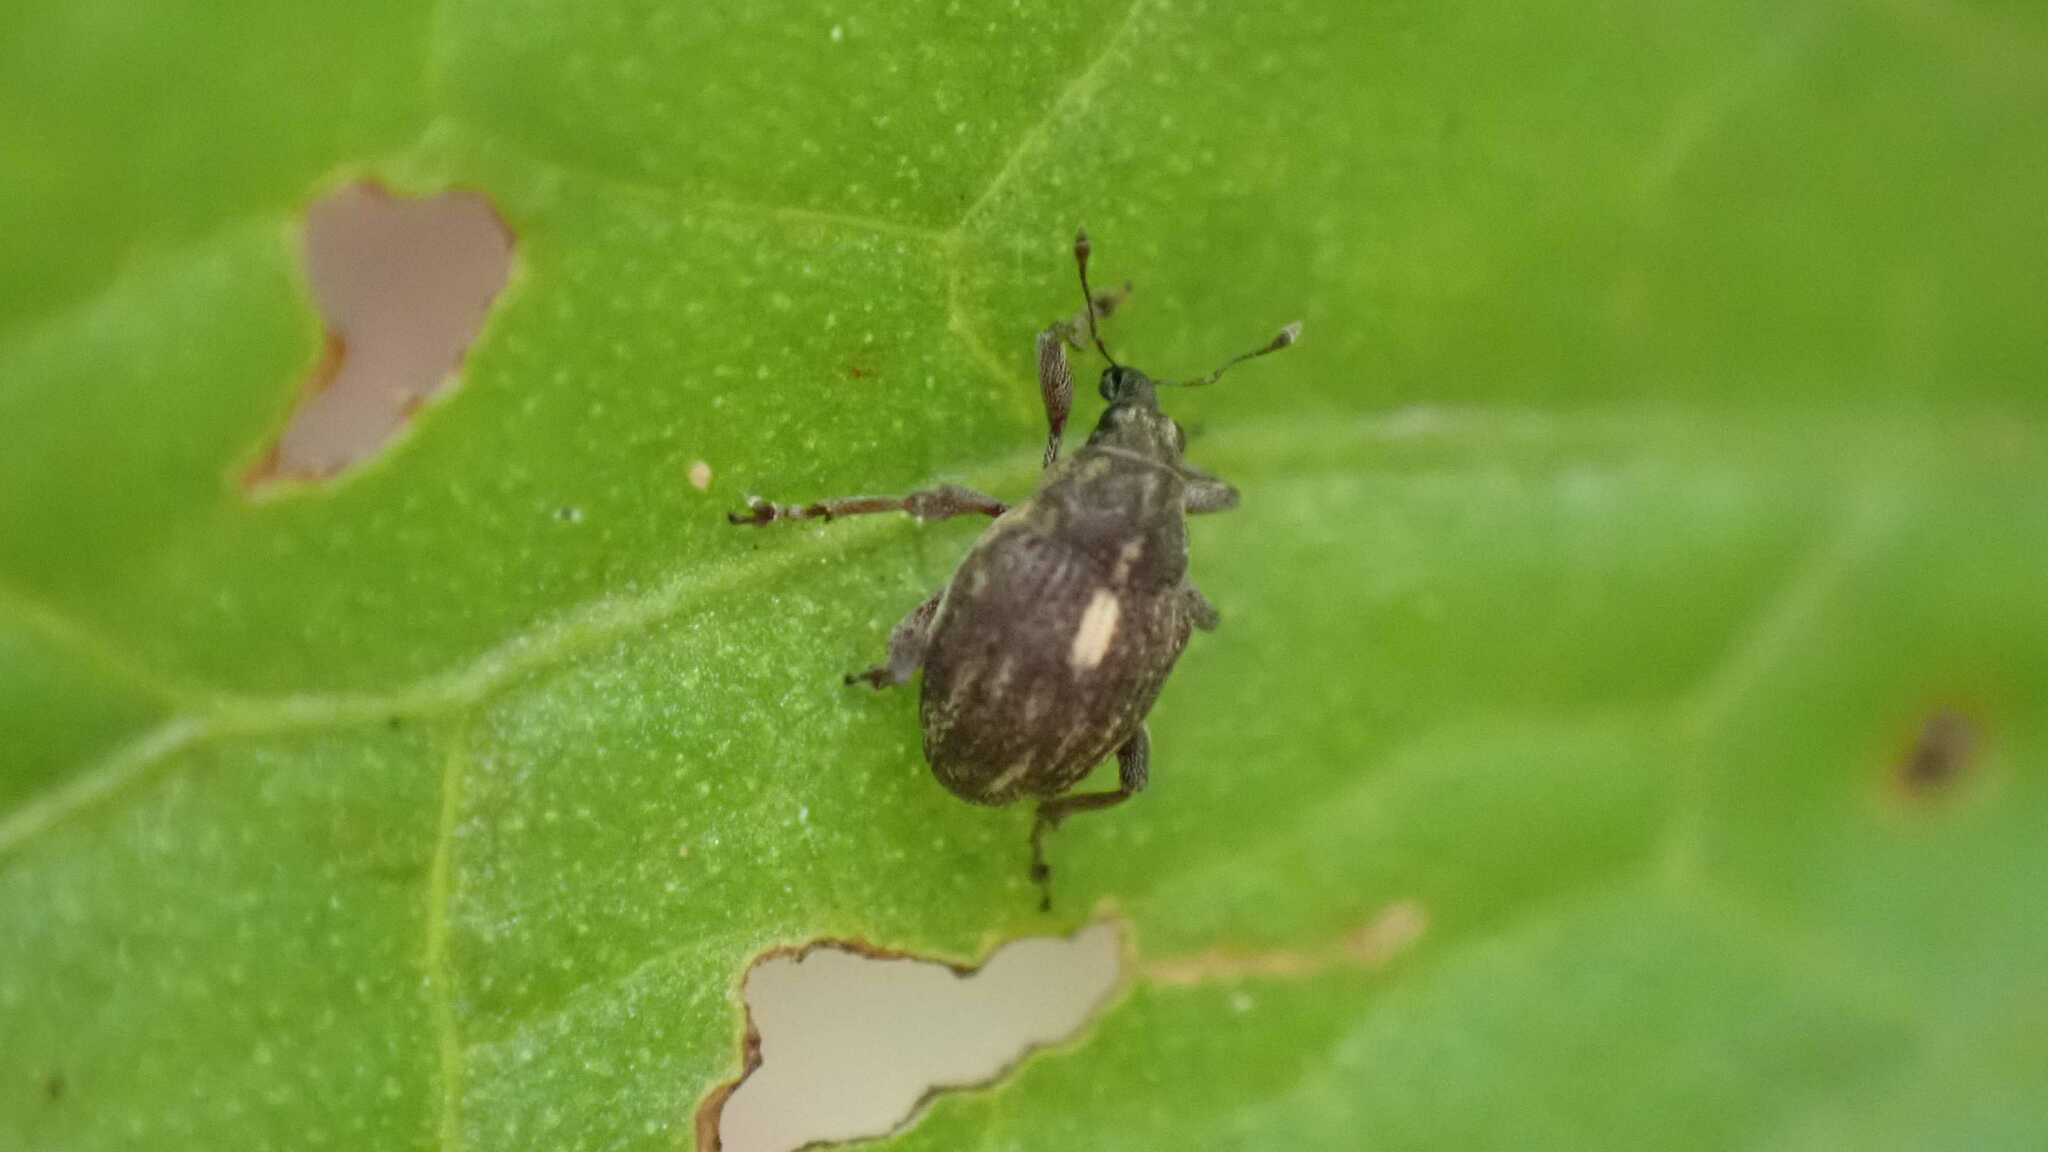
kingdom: Animalia
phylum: Arthropoda
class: Insecta
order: Coleoptera
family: Curculionidae
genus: Rhinoncus
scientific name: Rhinoncus leucostigma
